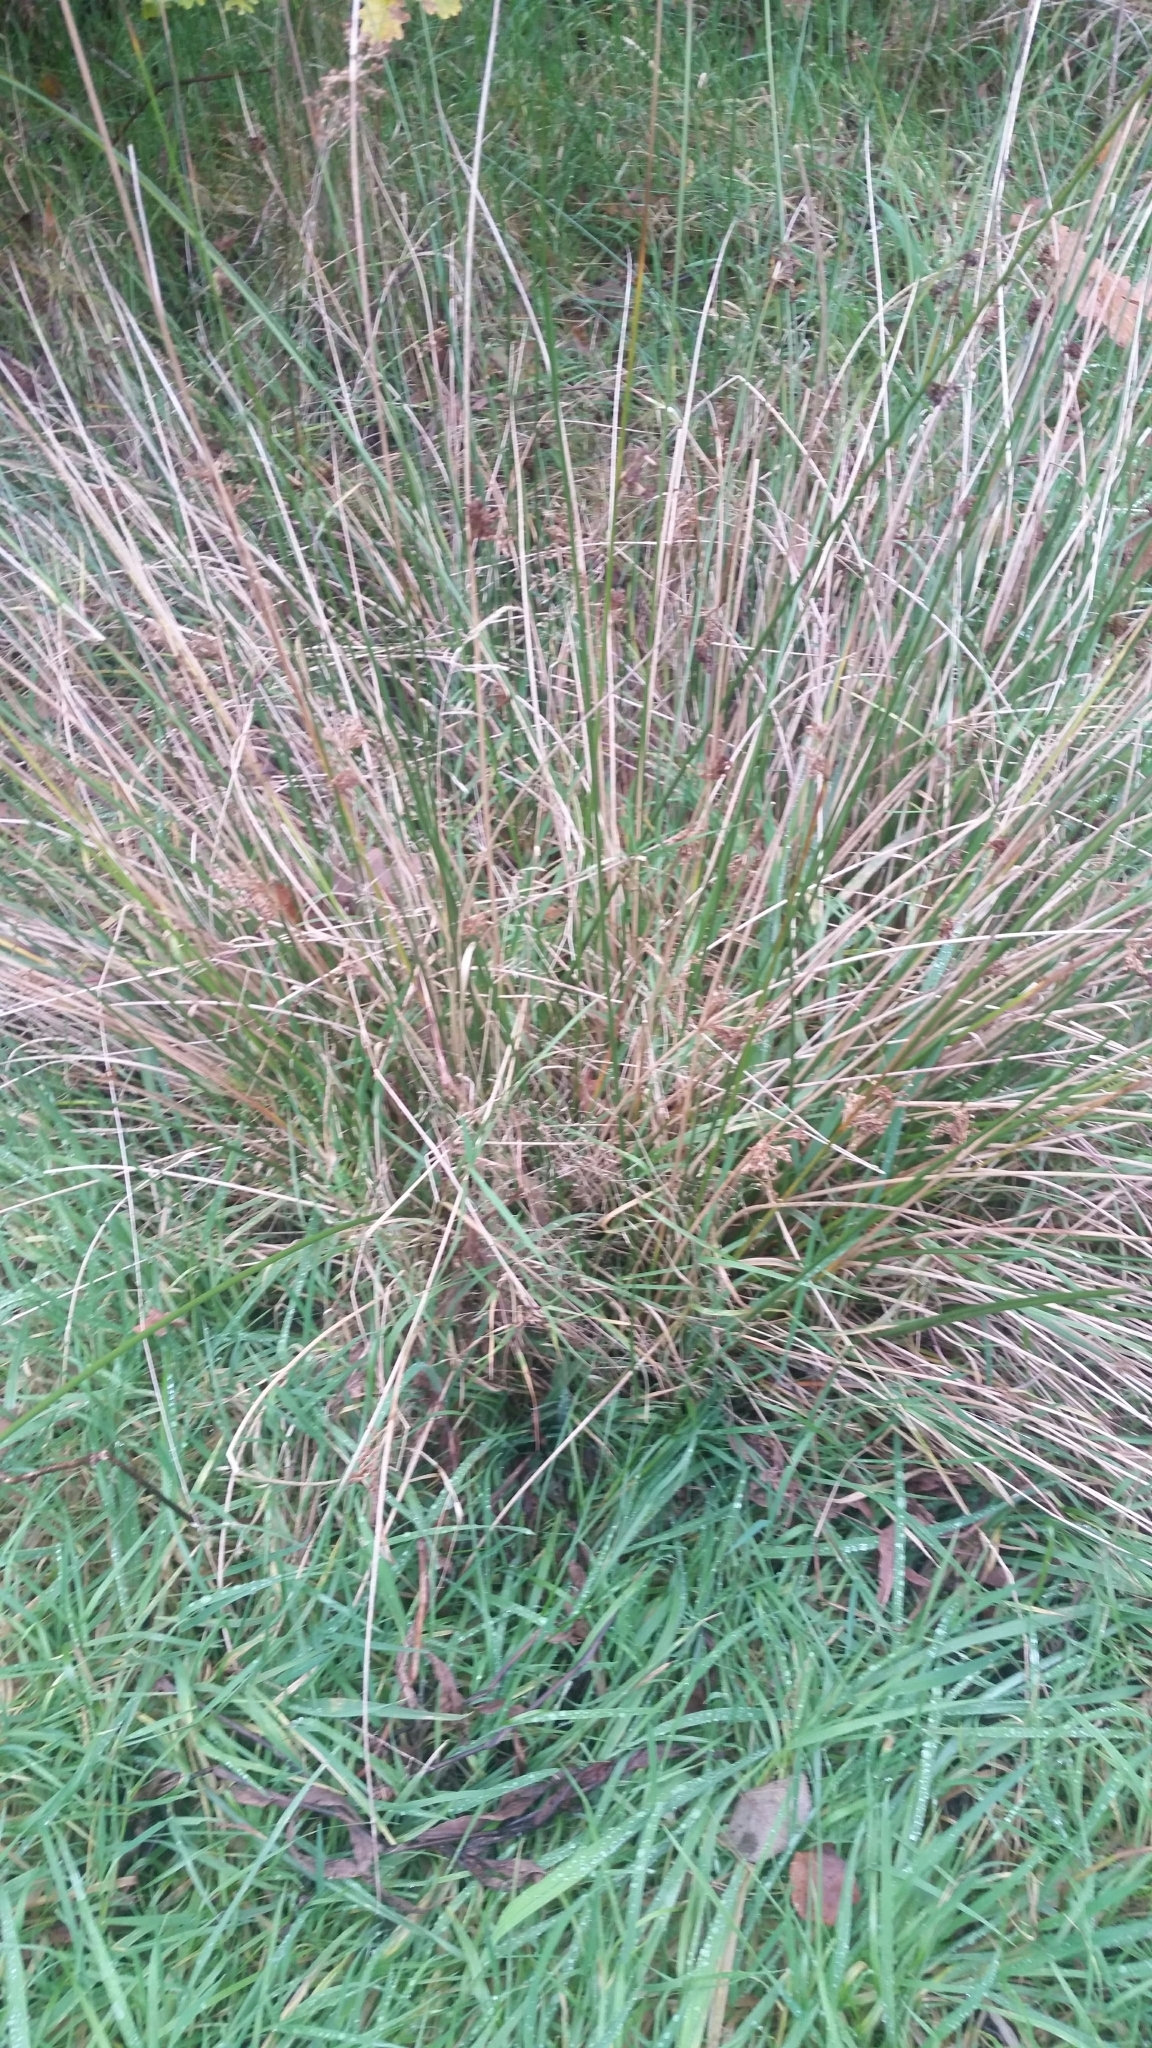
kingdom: Plantae
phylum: Tracheophyta
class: Liliopsida
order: Poales
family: Juncaceae
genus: Juncus
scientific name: Juncus effusus
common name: Soft rush
